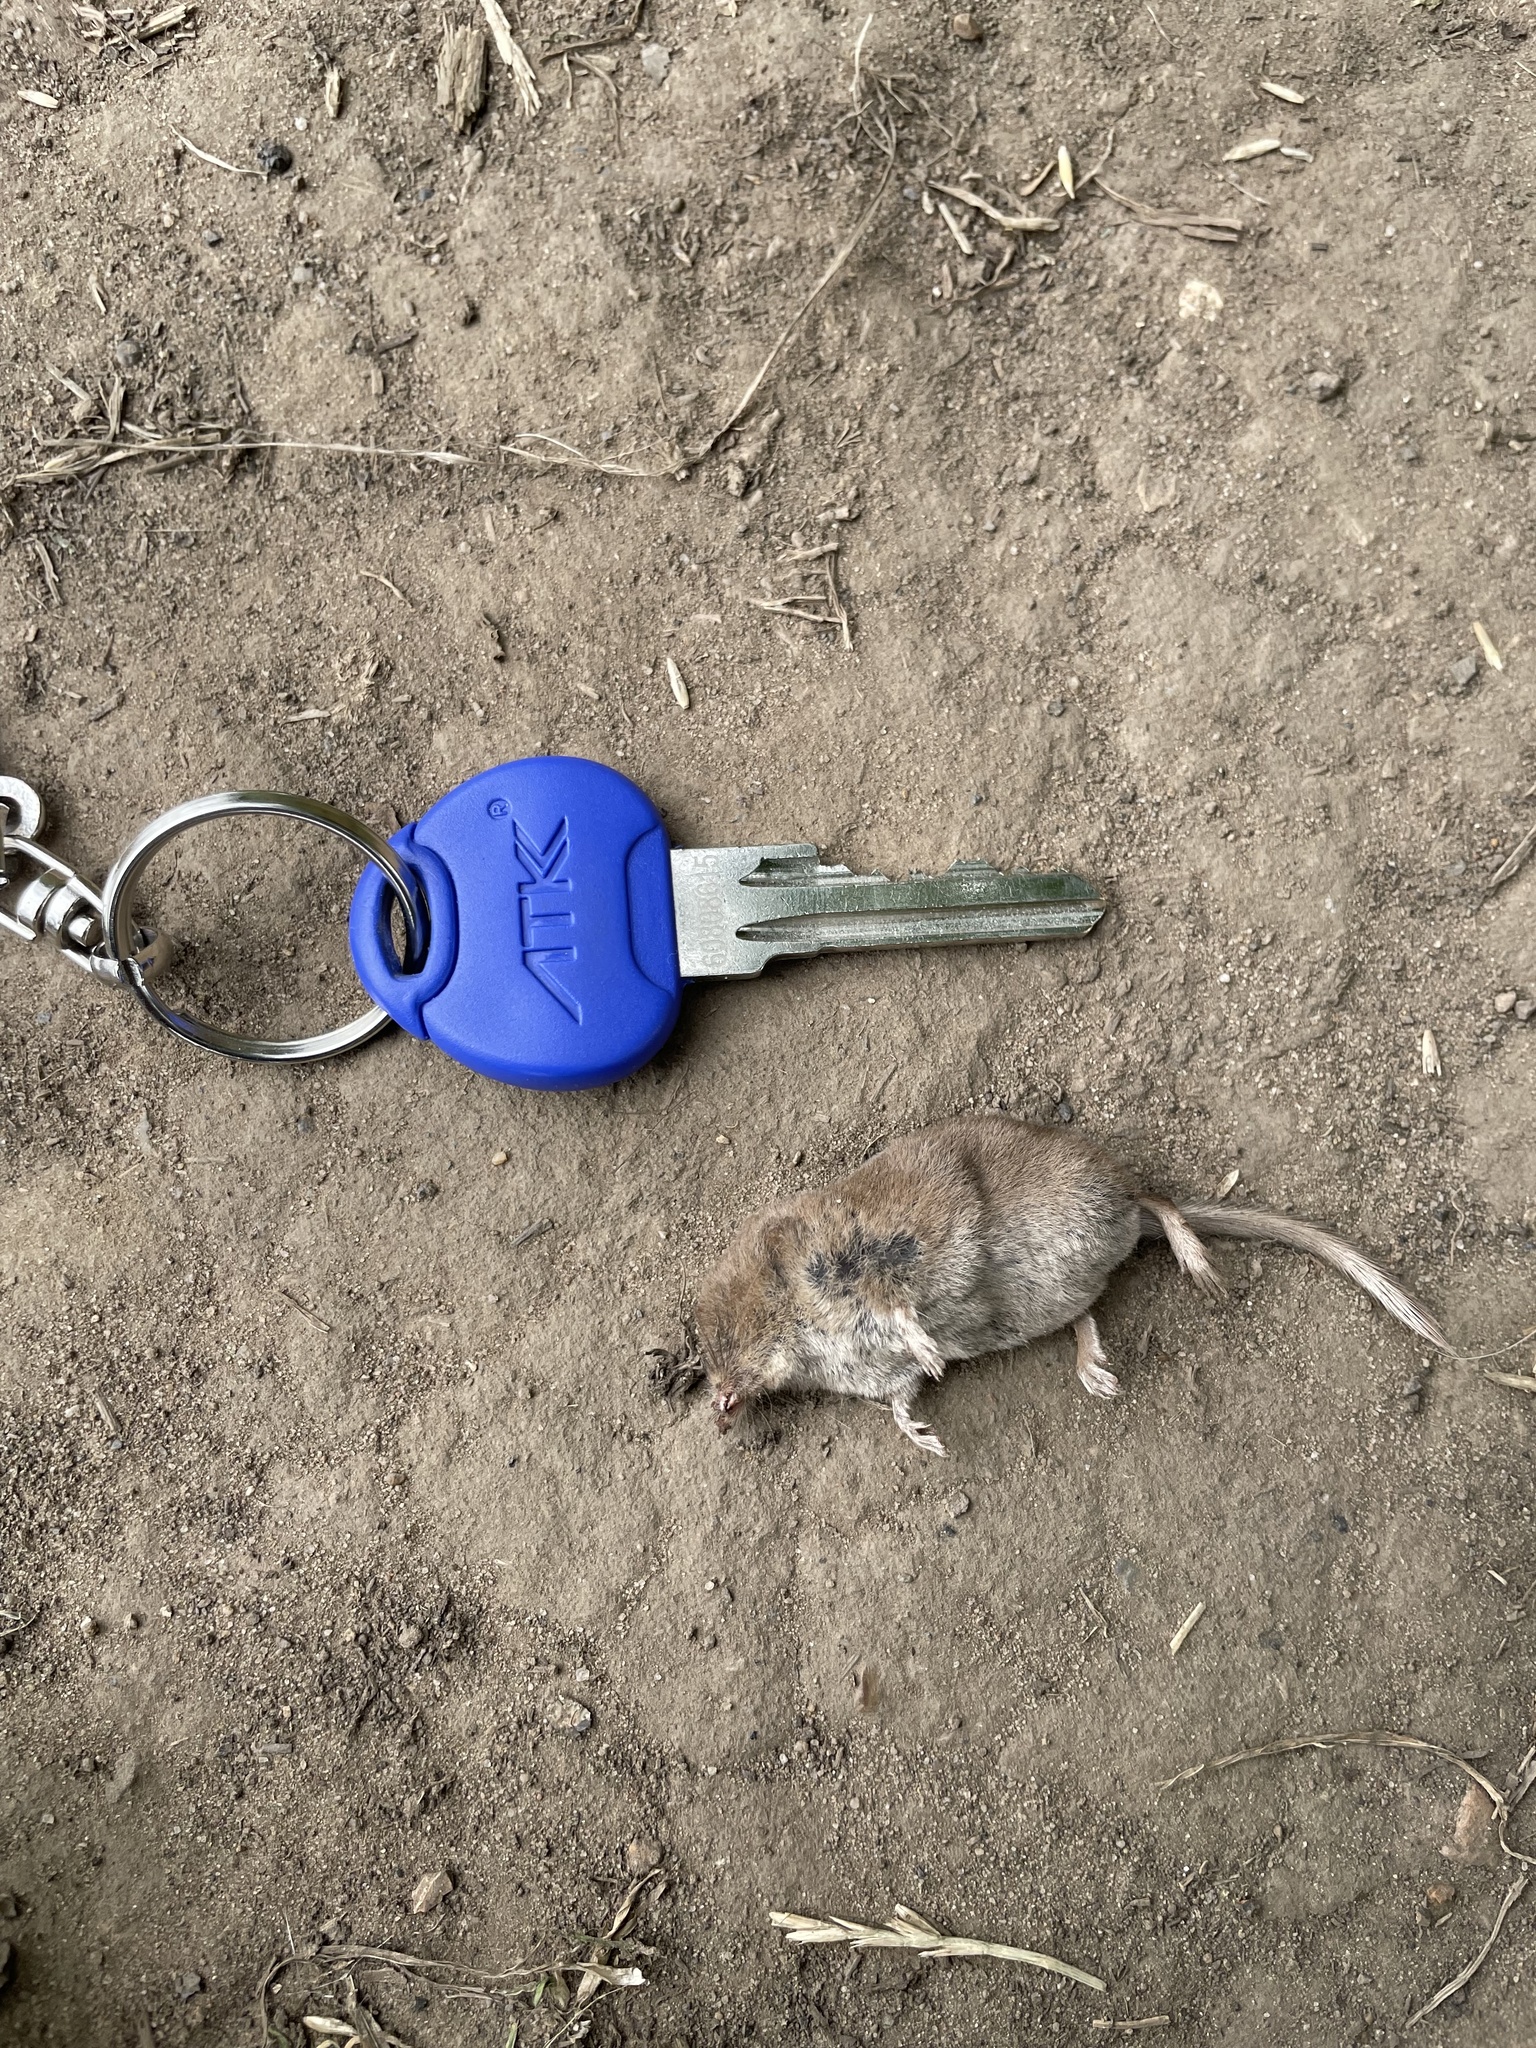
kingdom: Animalia
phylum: Chordata
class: Mammalia
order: Soricomorpha
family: Soricidae
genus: Sorex
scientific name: Sorex minutus
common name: Eurasian pygmy shrew
